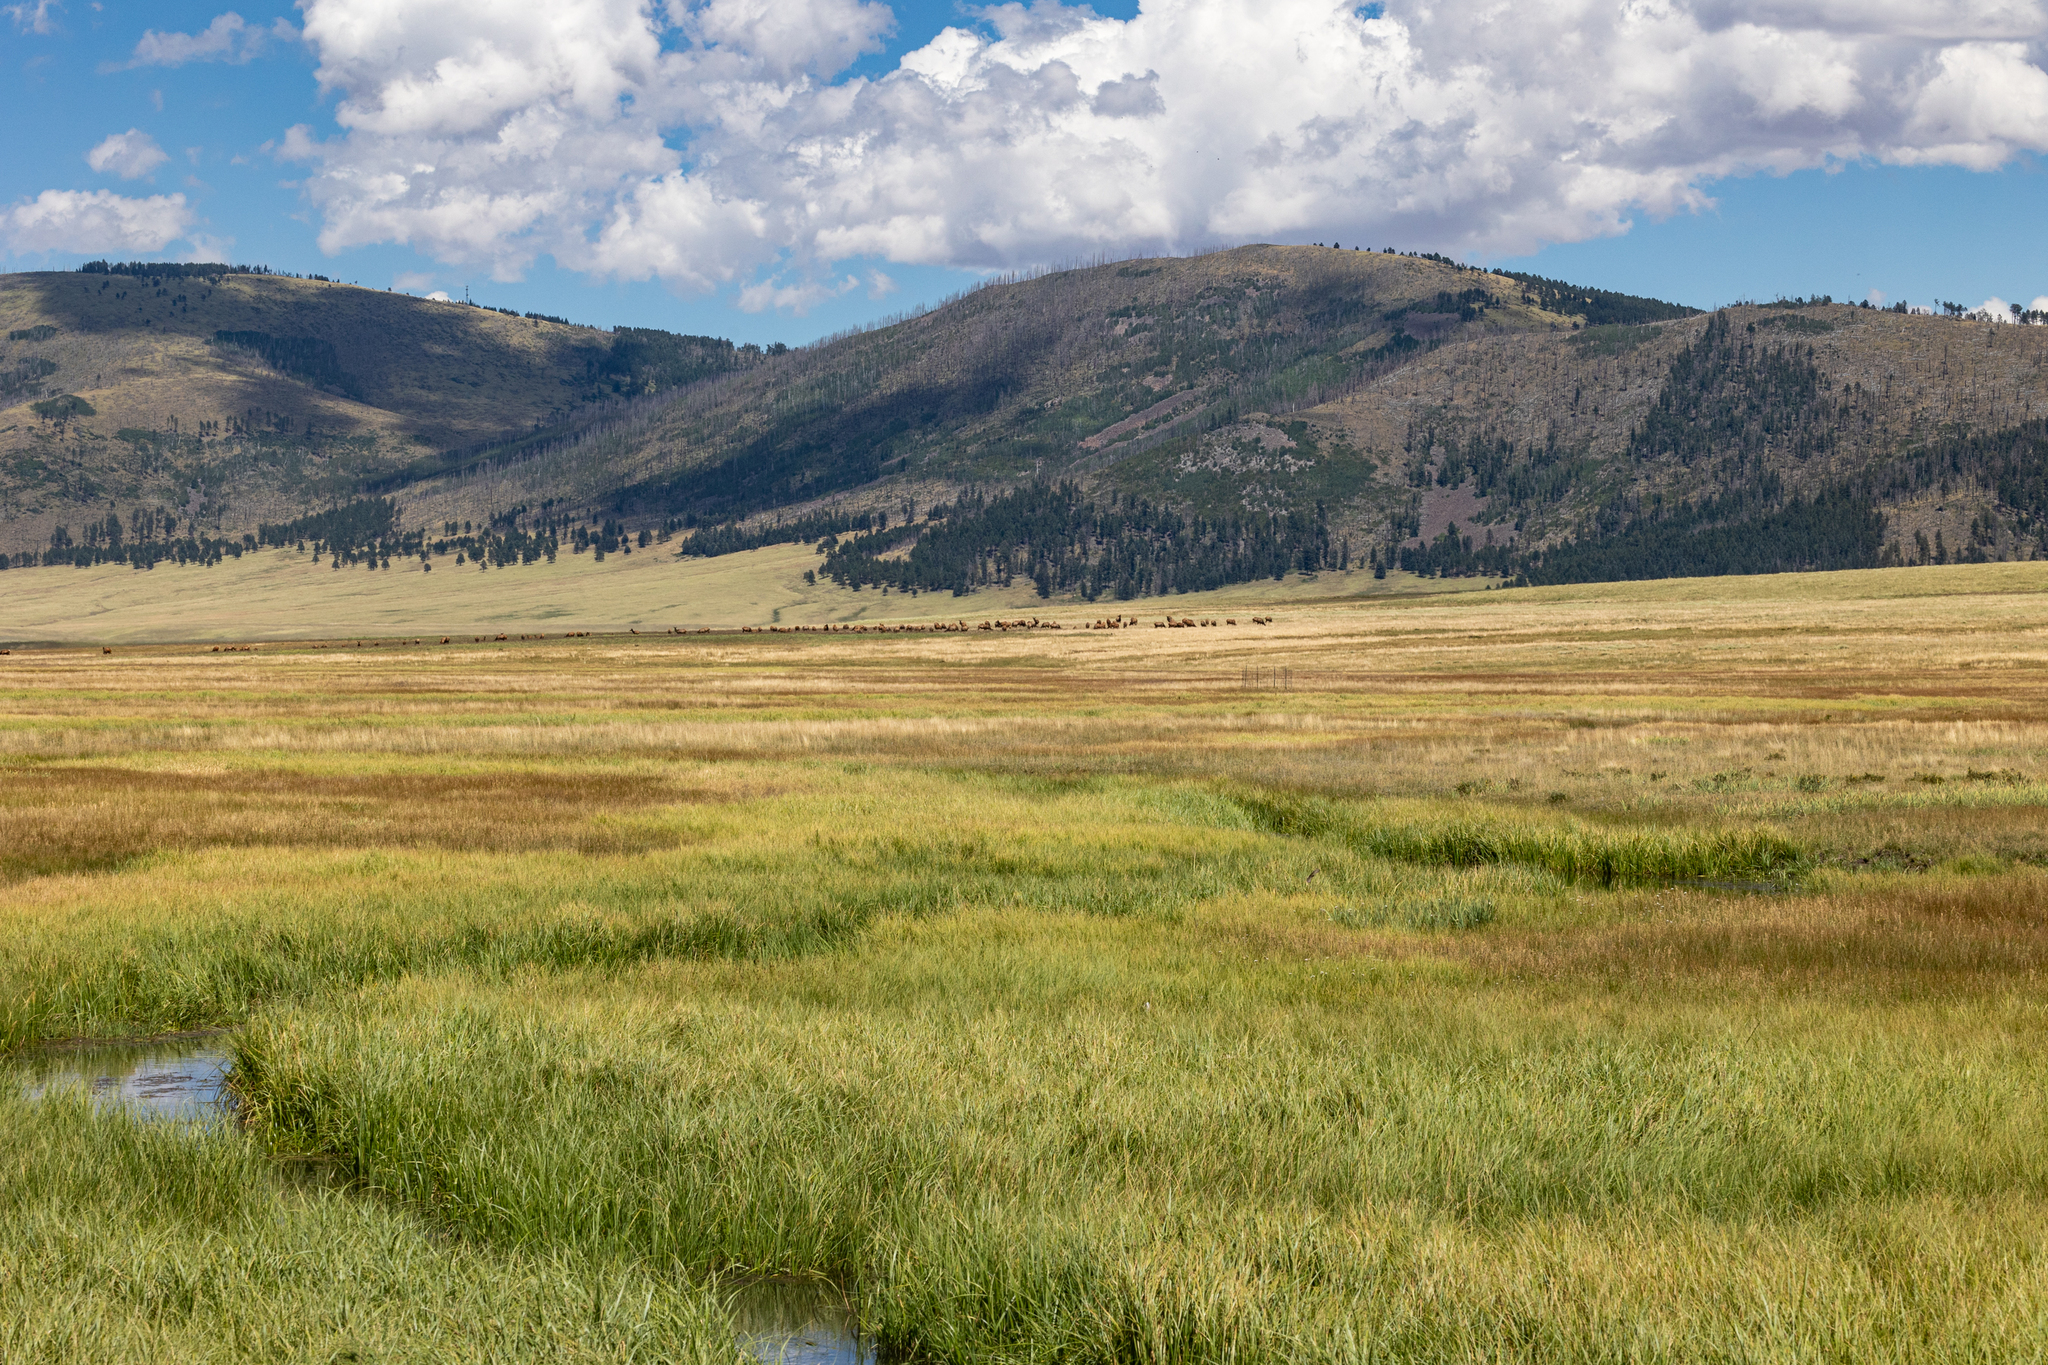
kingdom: Animalia
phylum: Chordata
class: Mammalia
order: Artiodactyla
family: Cervidae
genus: Cervus
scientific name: Cervus elaphus
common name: Red deer
